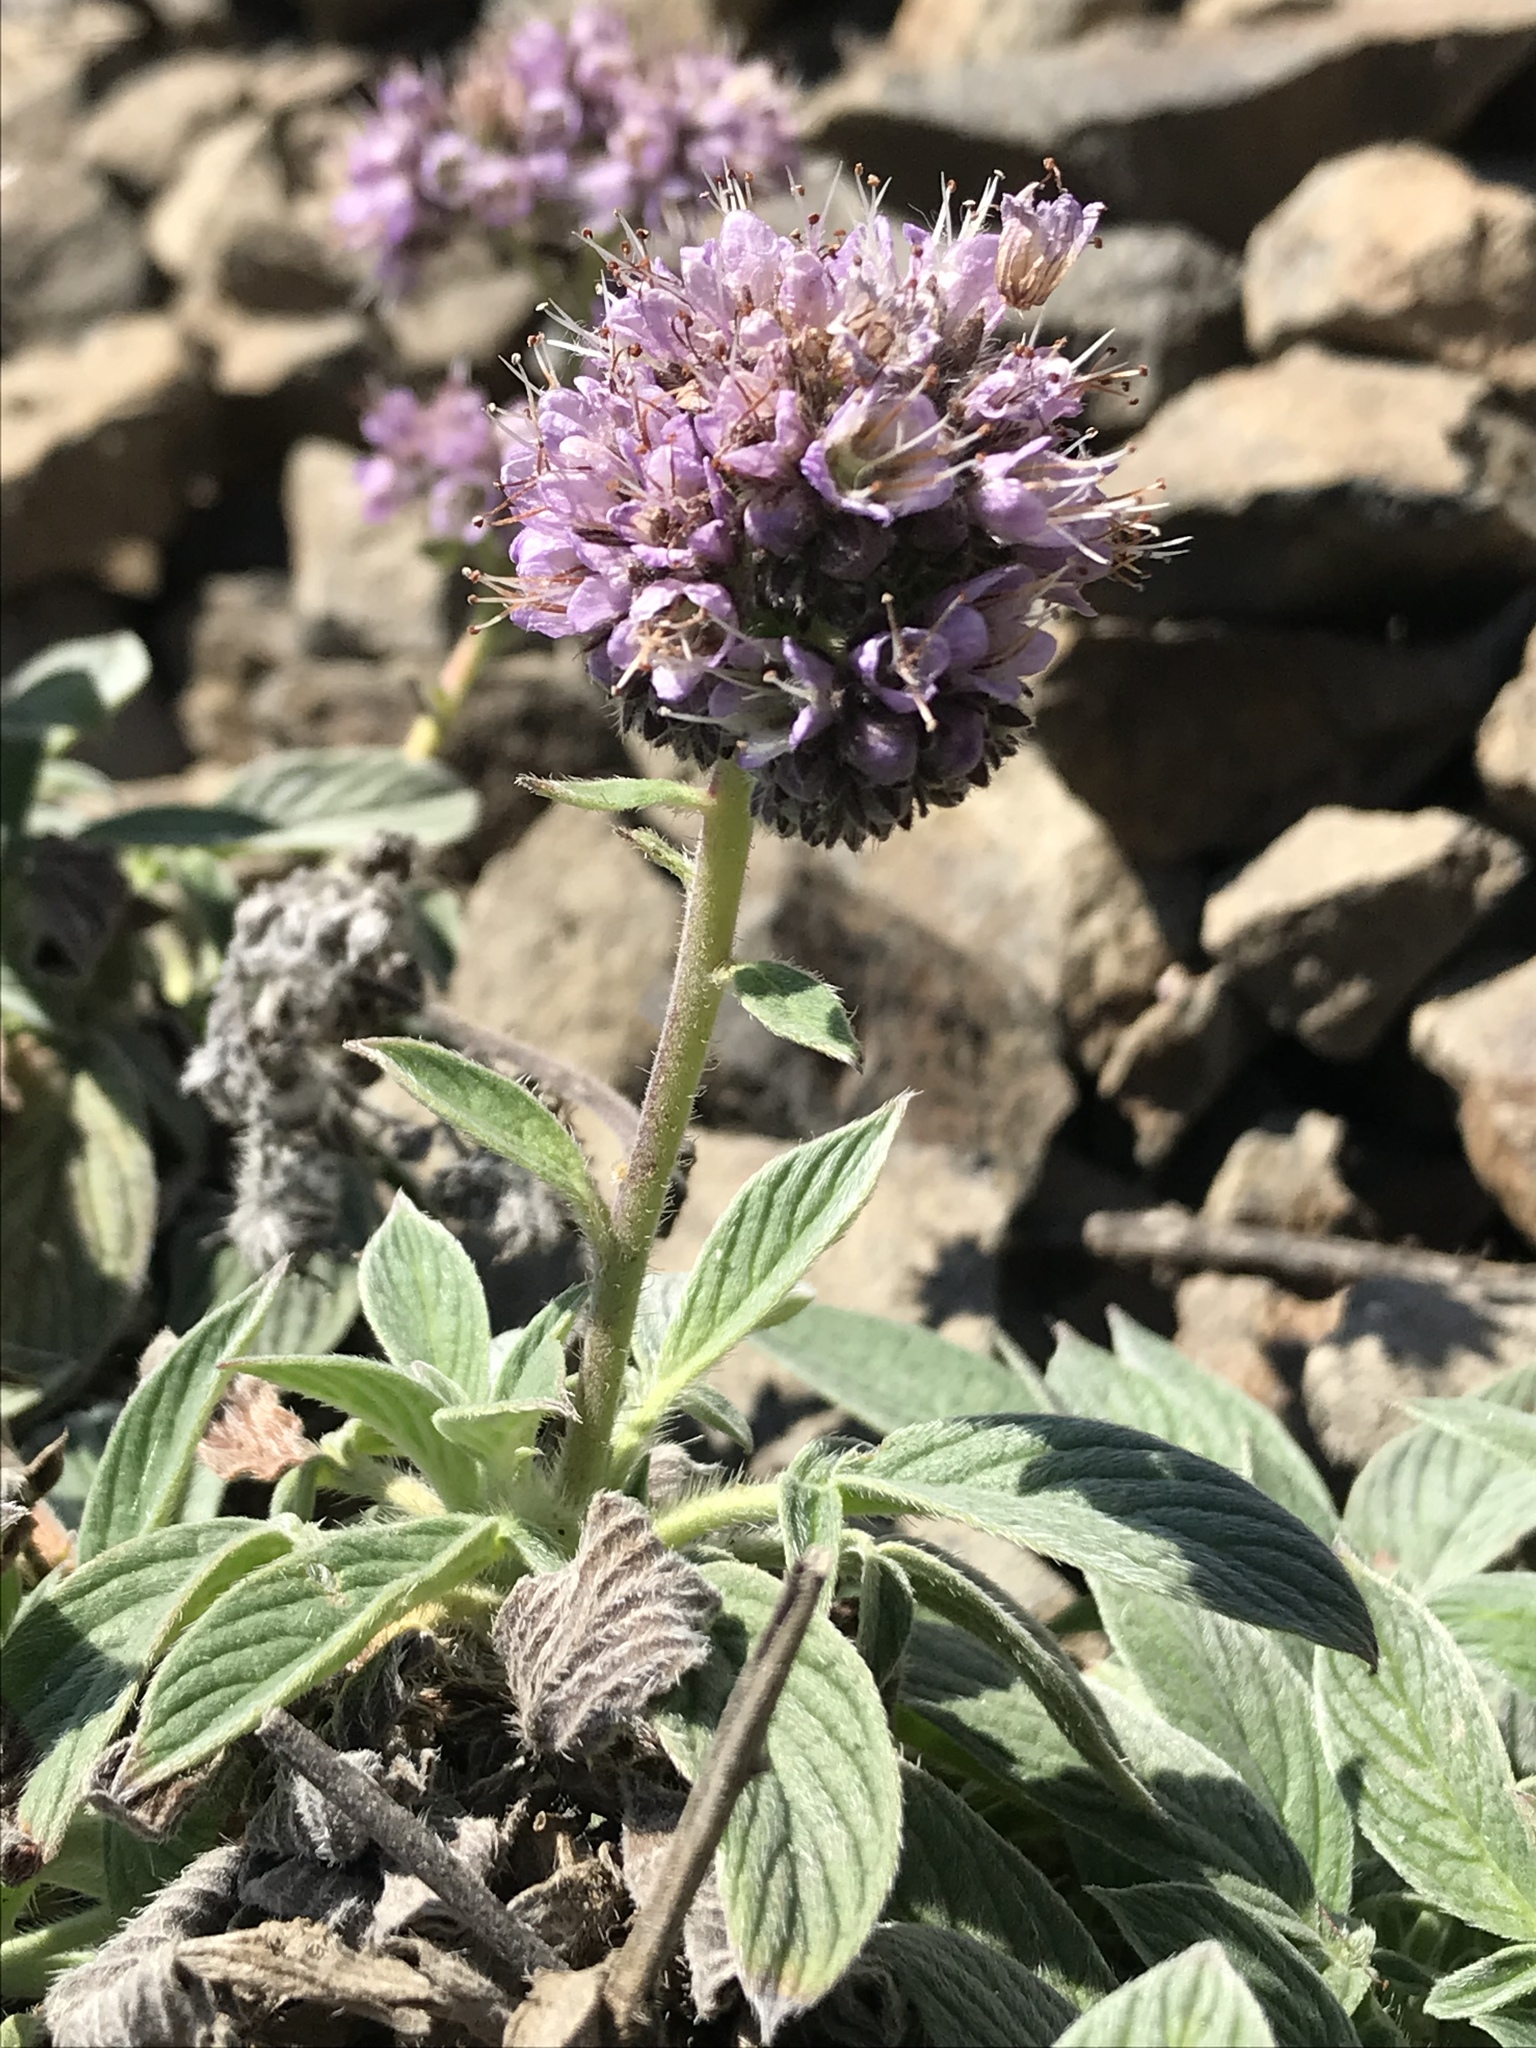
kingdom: Plantae
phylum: Tracheophyta
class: Magnoliopsida
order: Boraginales
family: Hydrophyllaceae
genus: Phacelia
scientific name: Phacelia californica
